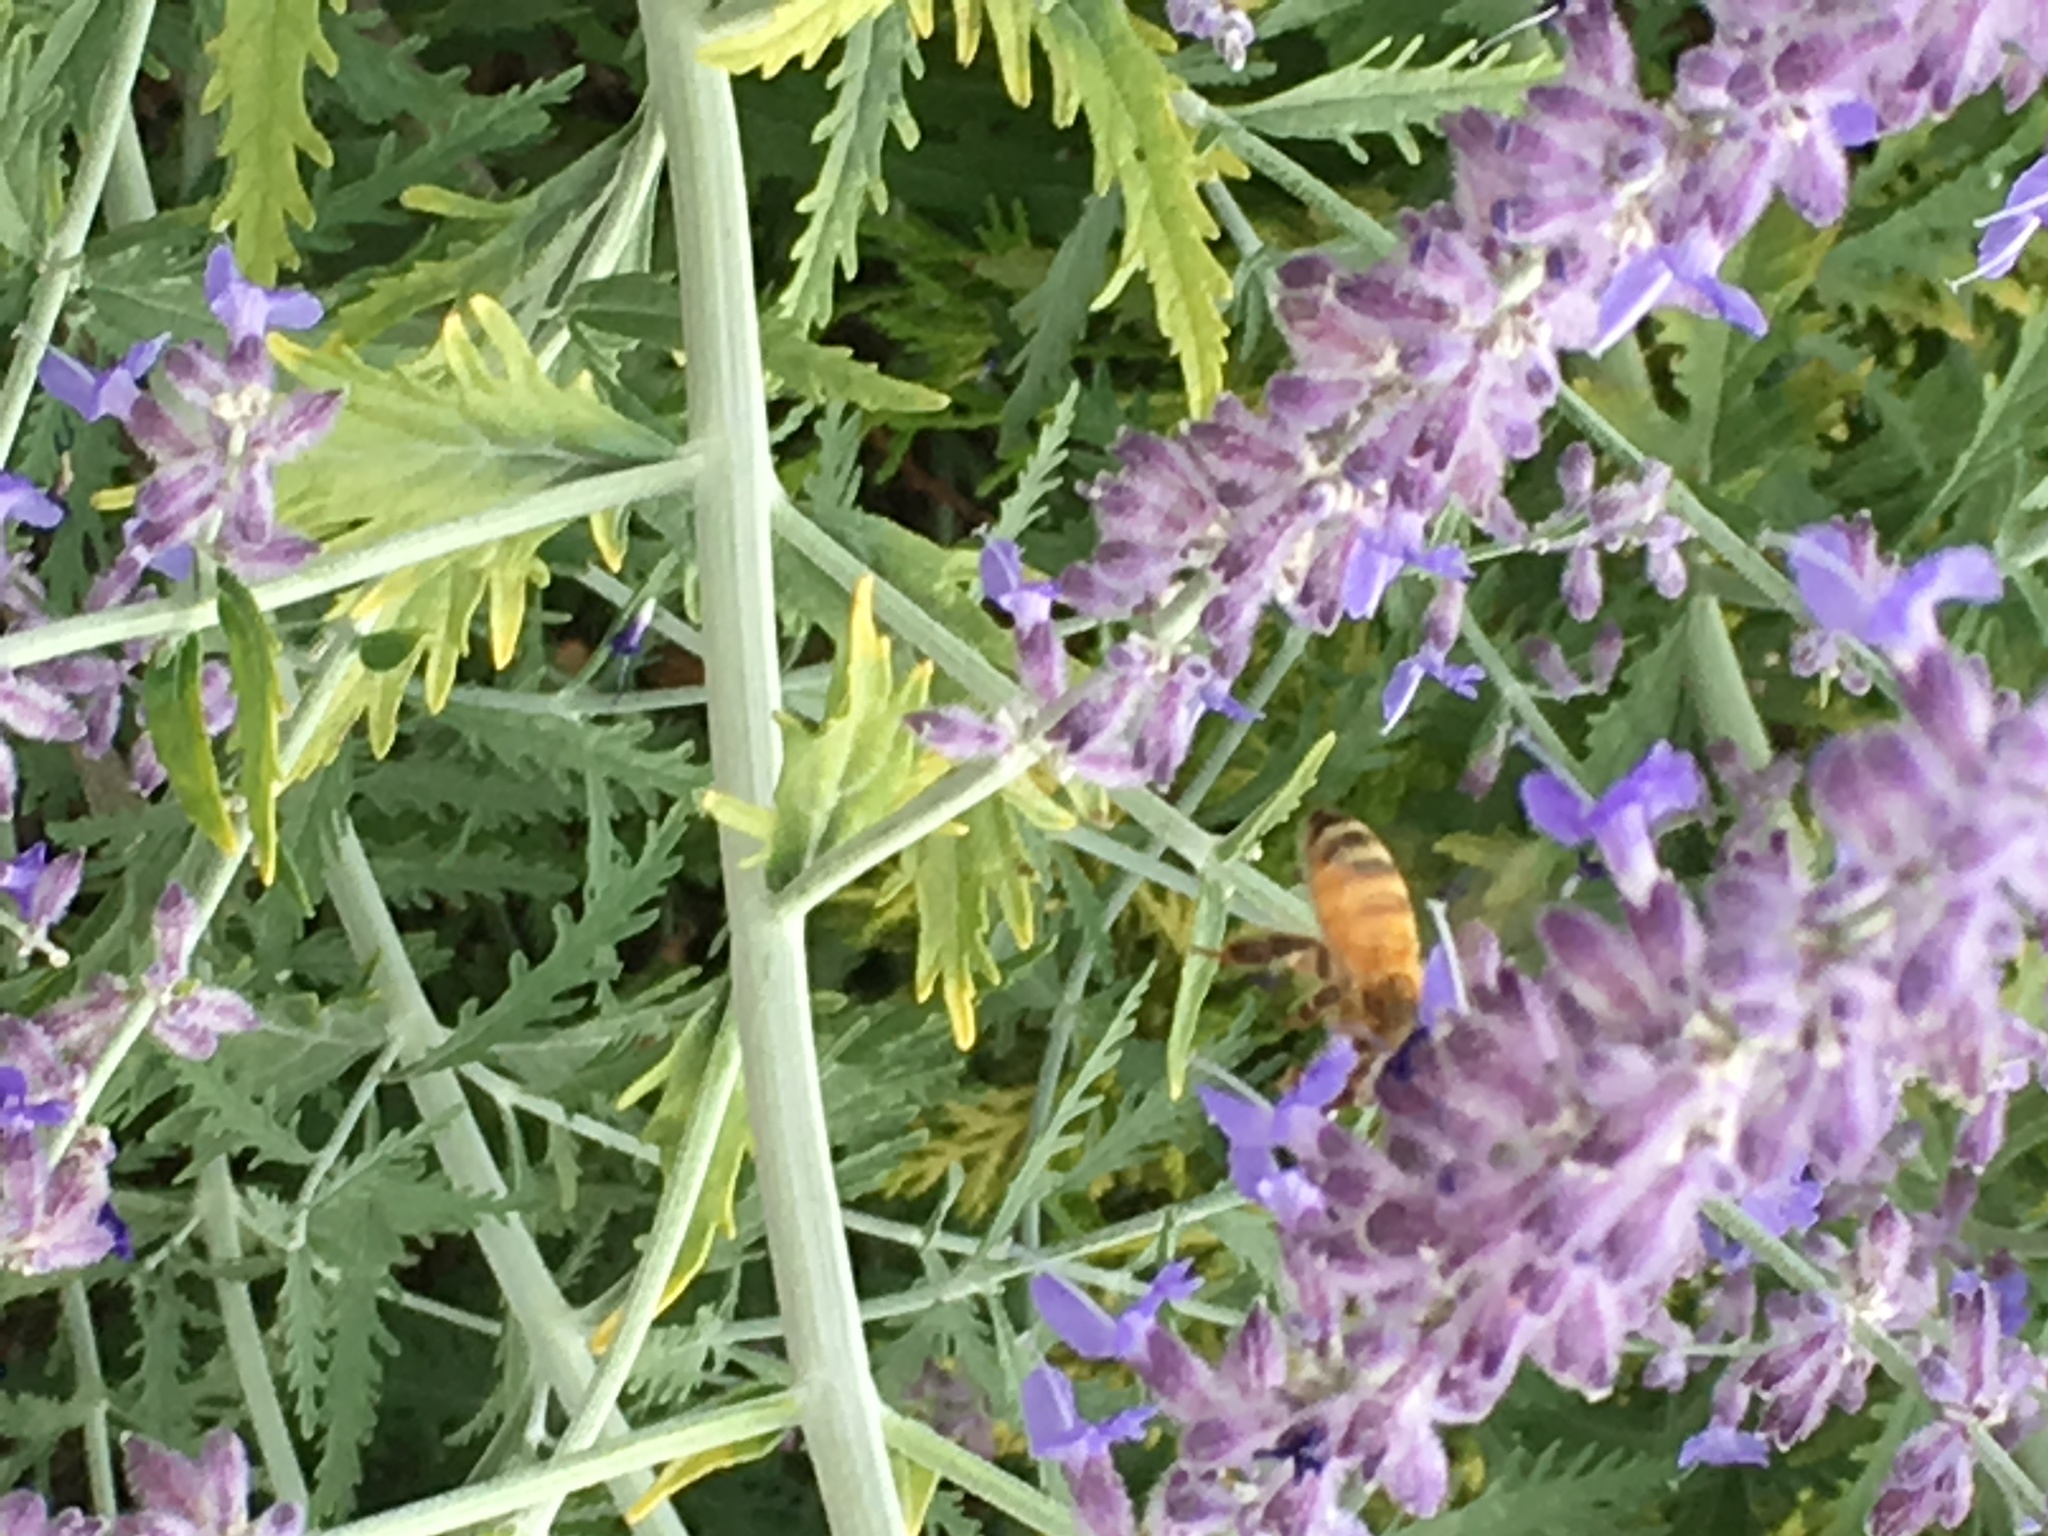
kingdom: Animalia
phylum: Arthropoda
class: Insecta
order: Hymenoptera
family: Apidae
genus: Apis
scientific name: Apis mellifera
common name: Honey bee
